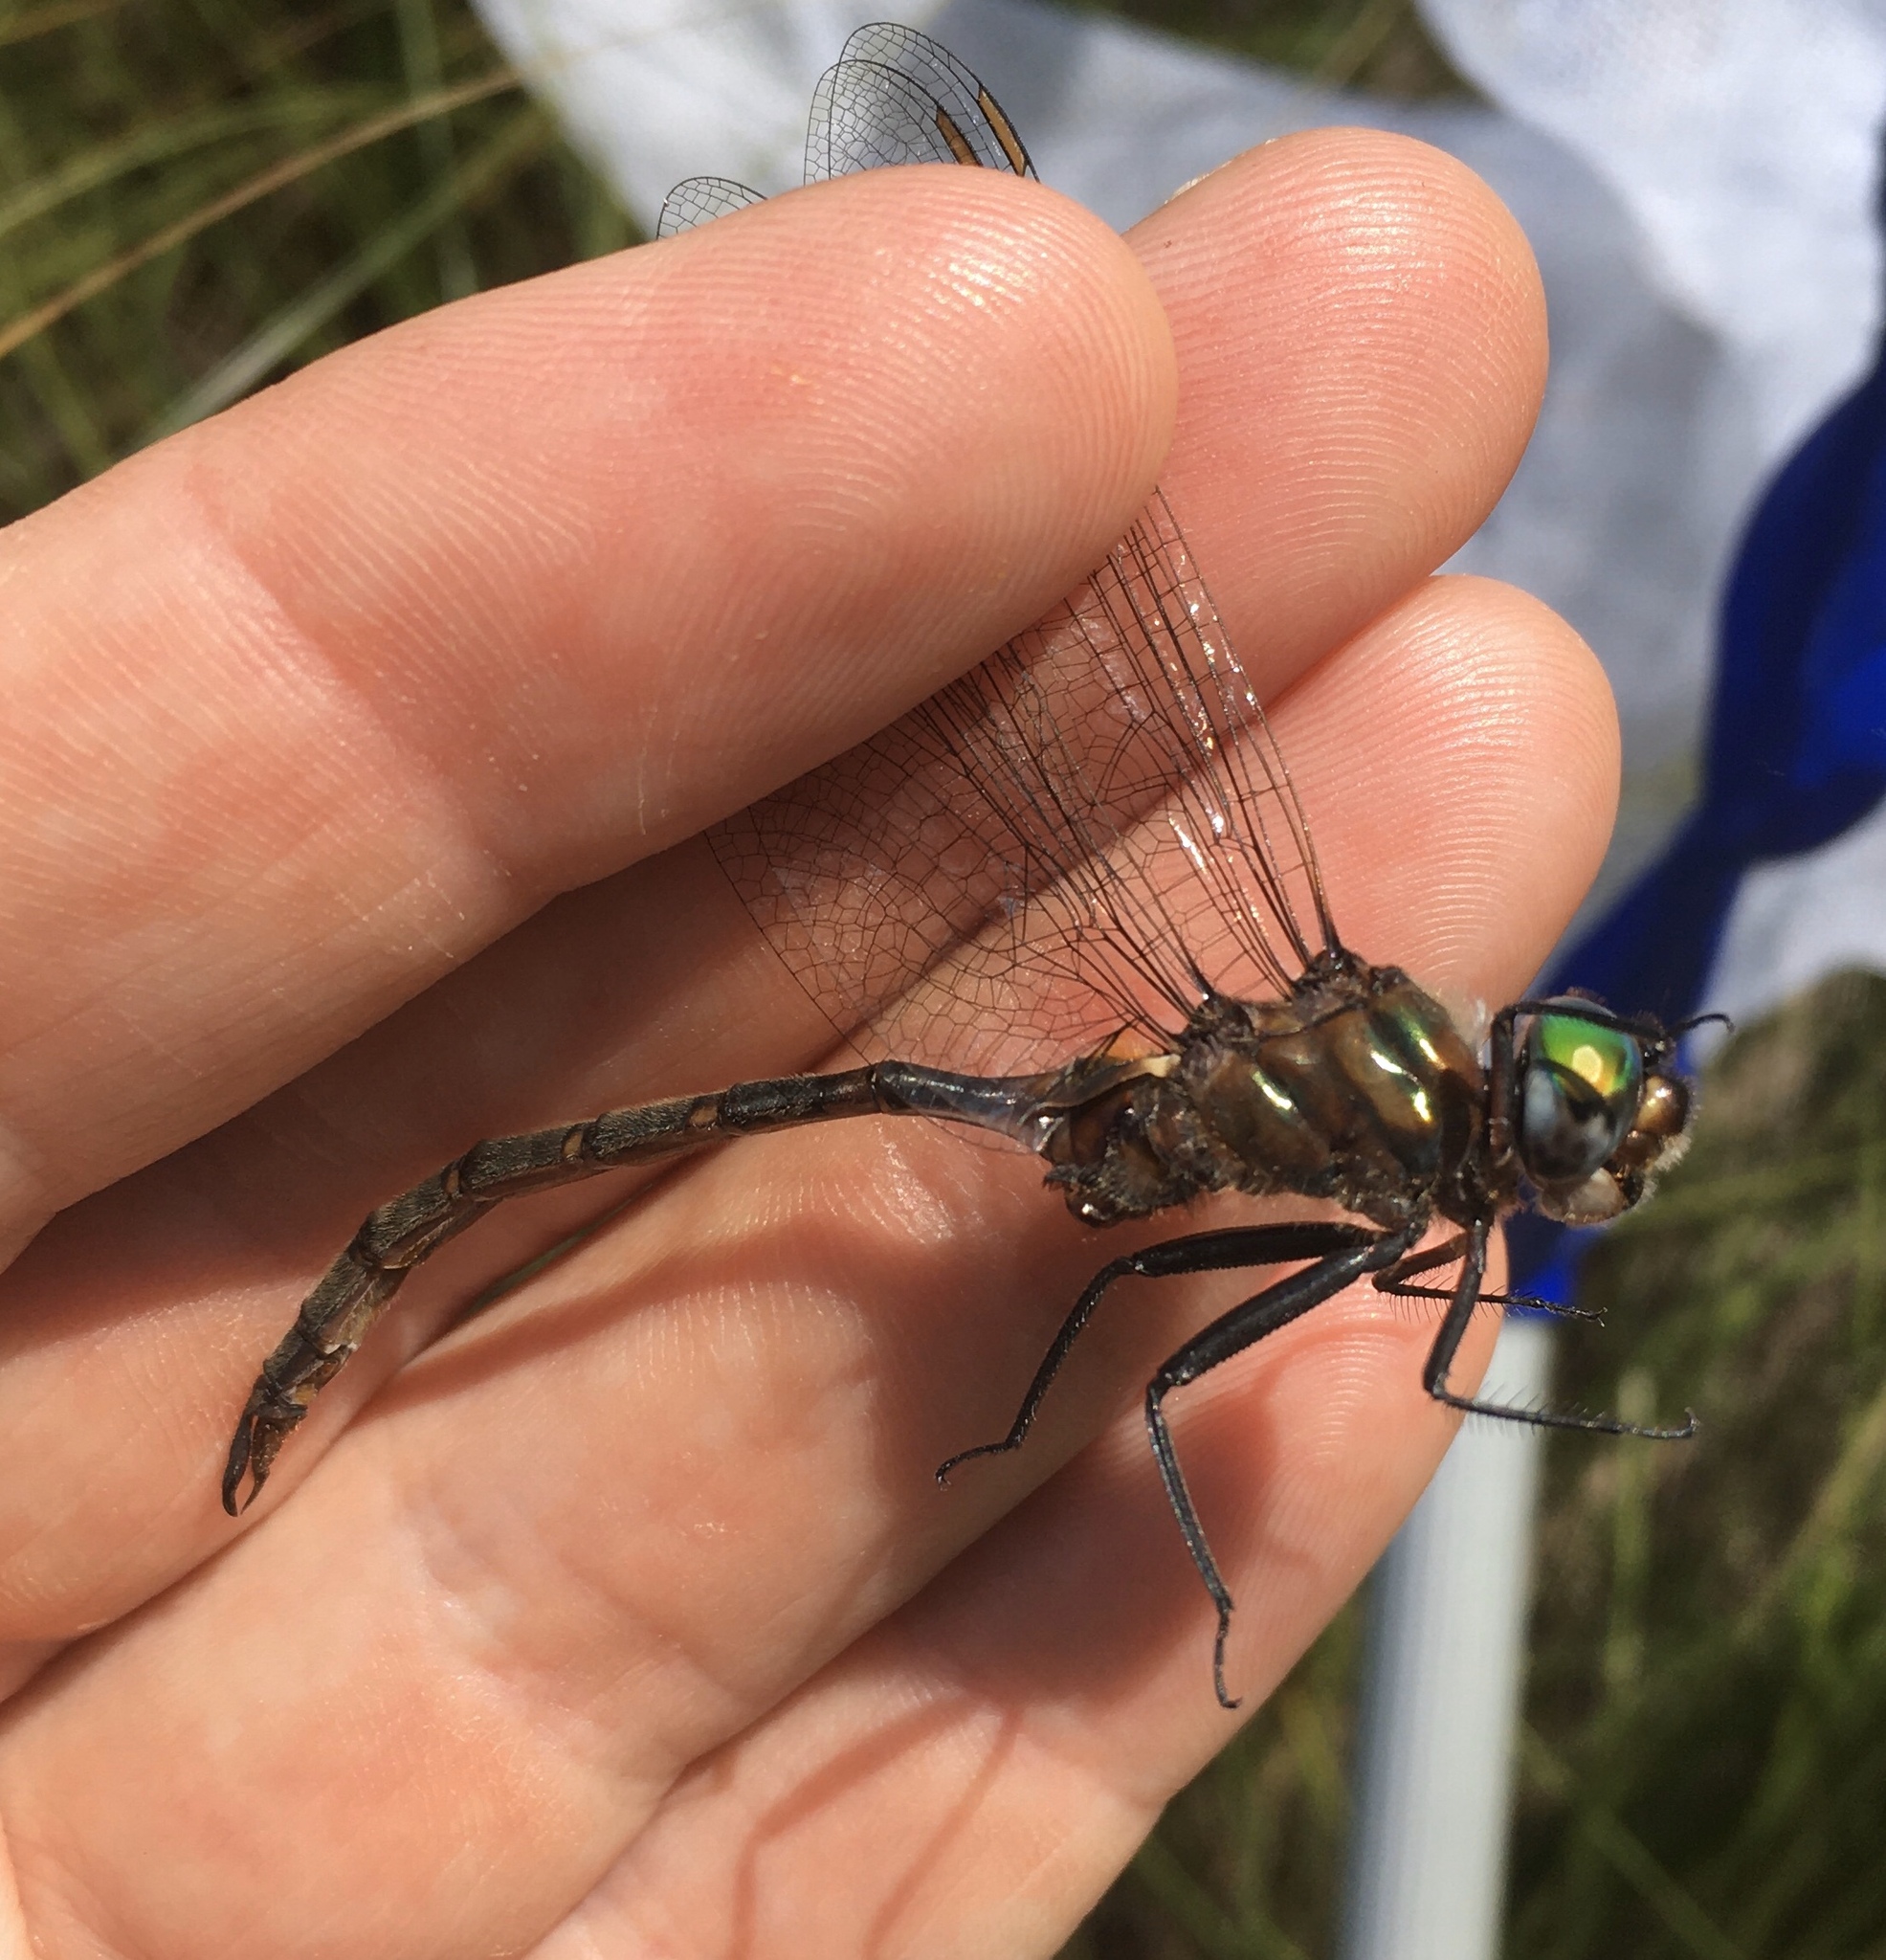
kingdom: Animalia
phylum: Arthropoda
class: Insecta
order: Odonata
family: Corduliidae
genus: Somatochlora
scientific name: Somatochlora incurvata
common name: Incurvate emerald
